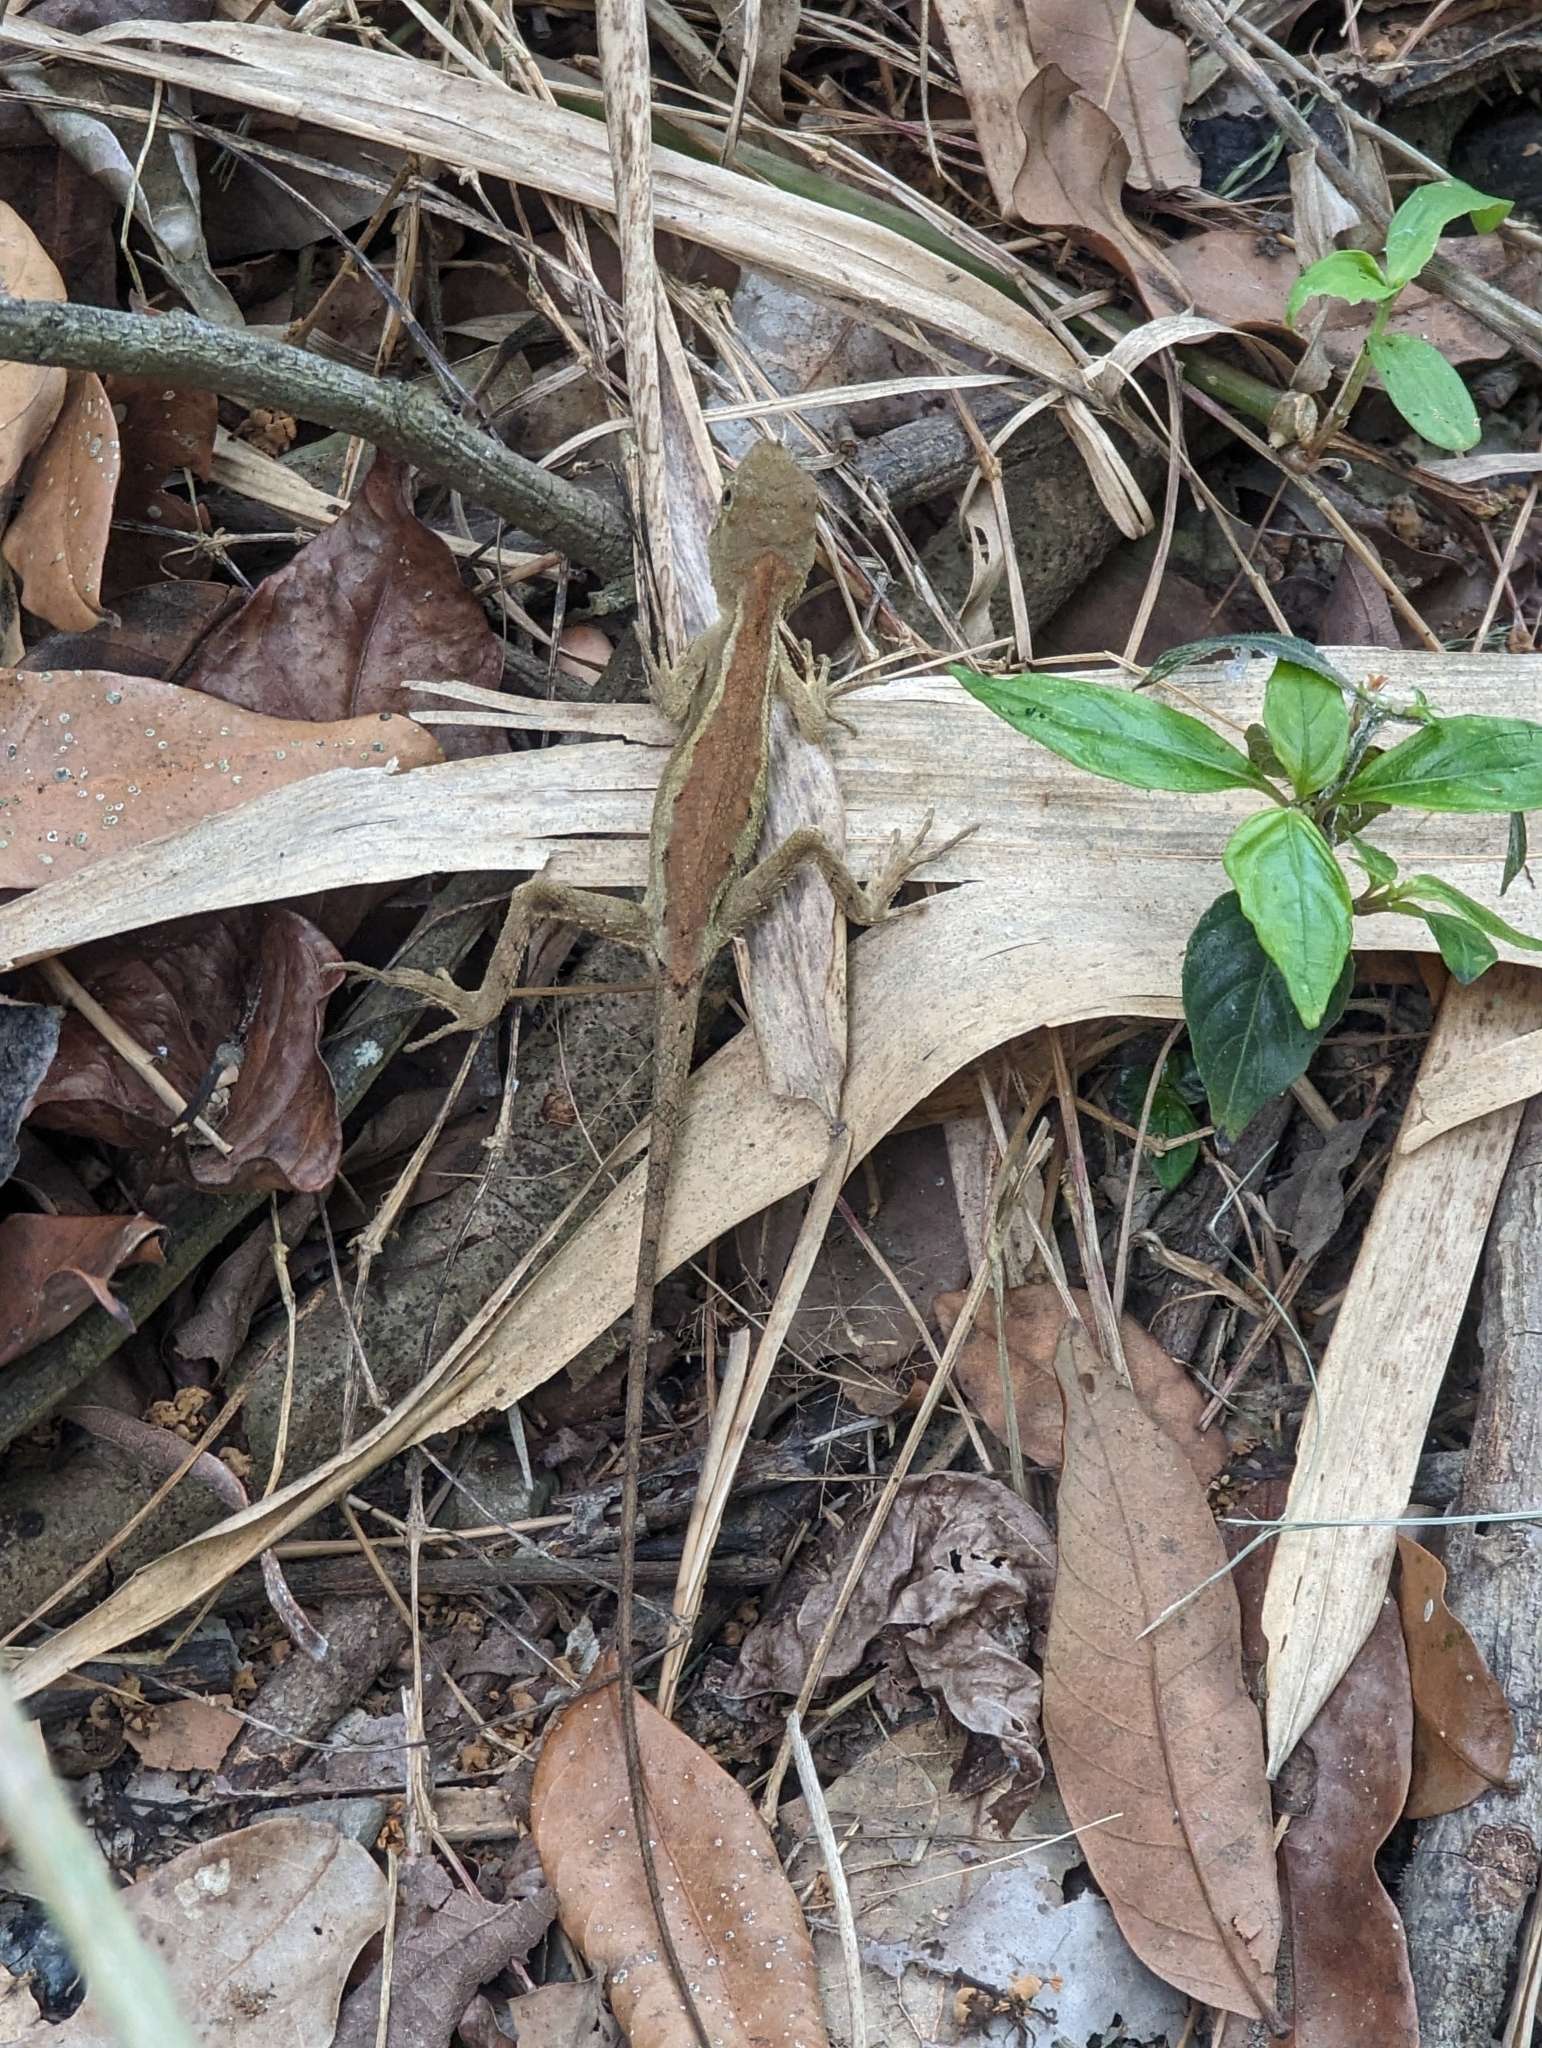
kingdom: Animalia
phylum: Chordata
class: Squamata
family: Agamidae
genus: Diploderma
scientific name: Diploderma swinhonis
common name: Taiwan japalure
